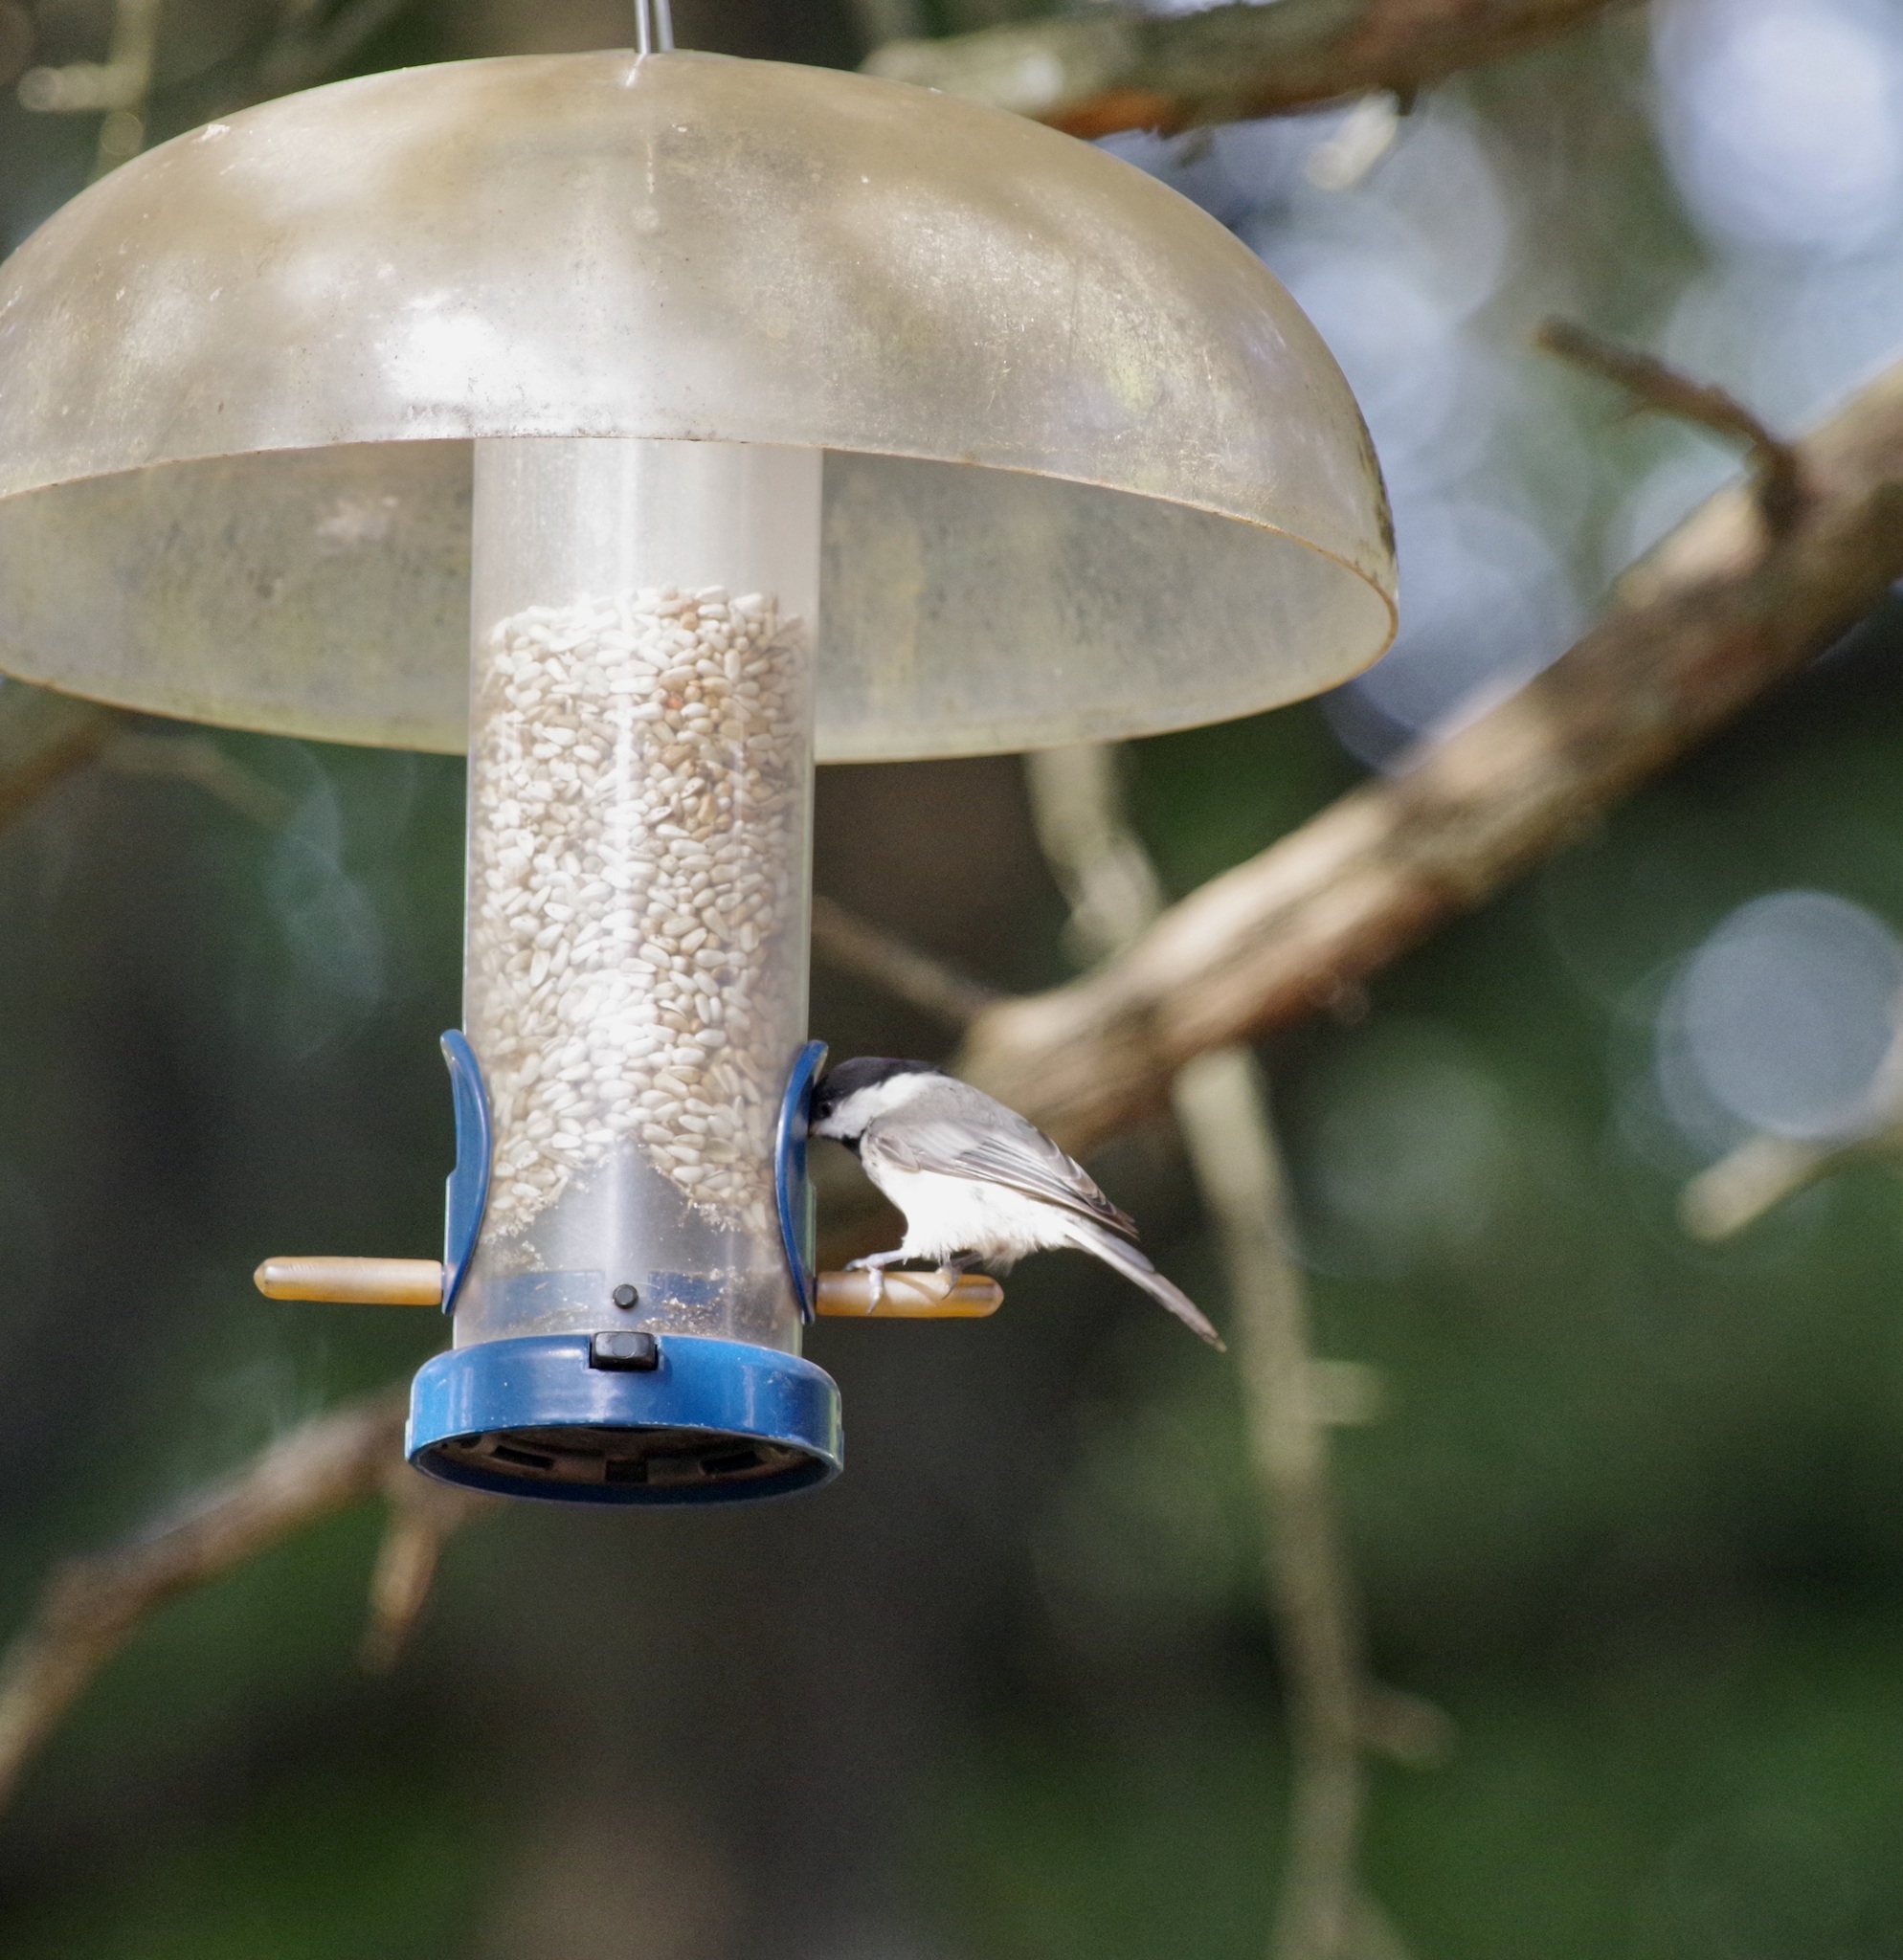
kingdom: Animalia
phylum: Chordata
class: Aves
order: Passeriformes
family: Paridae
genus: Poecile
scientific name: Poecile carolinensis
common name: Carolina chickadee
